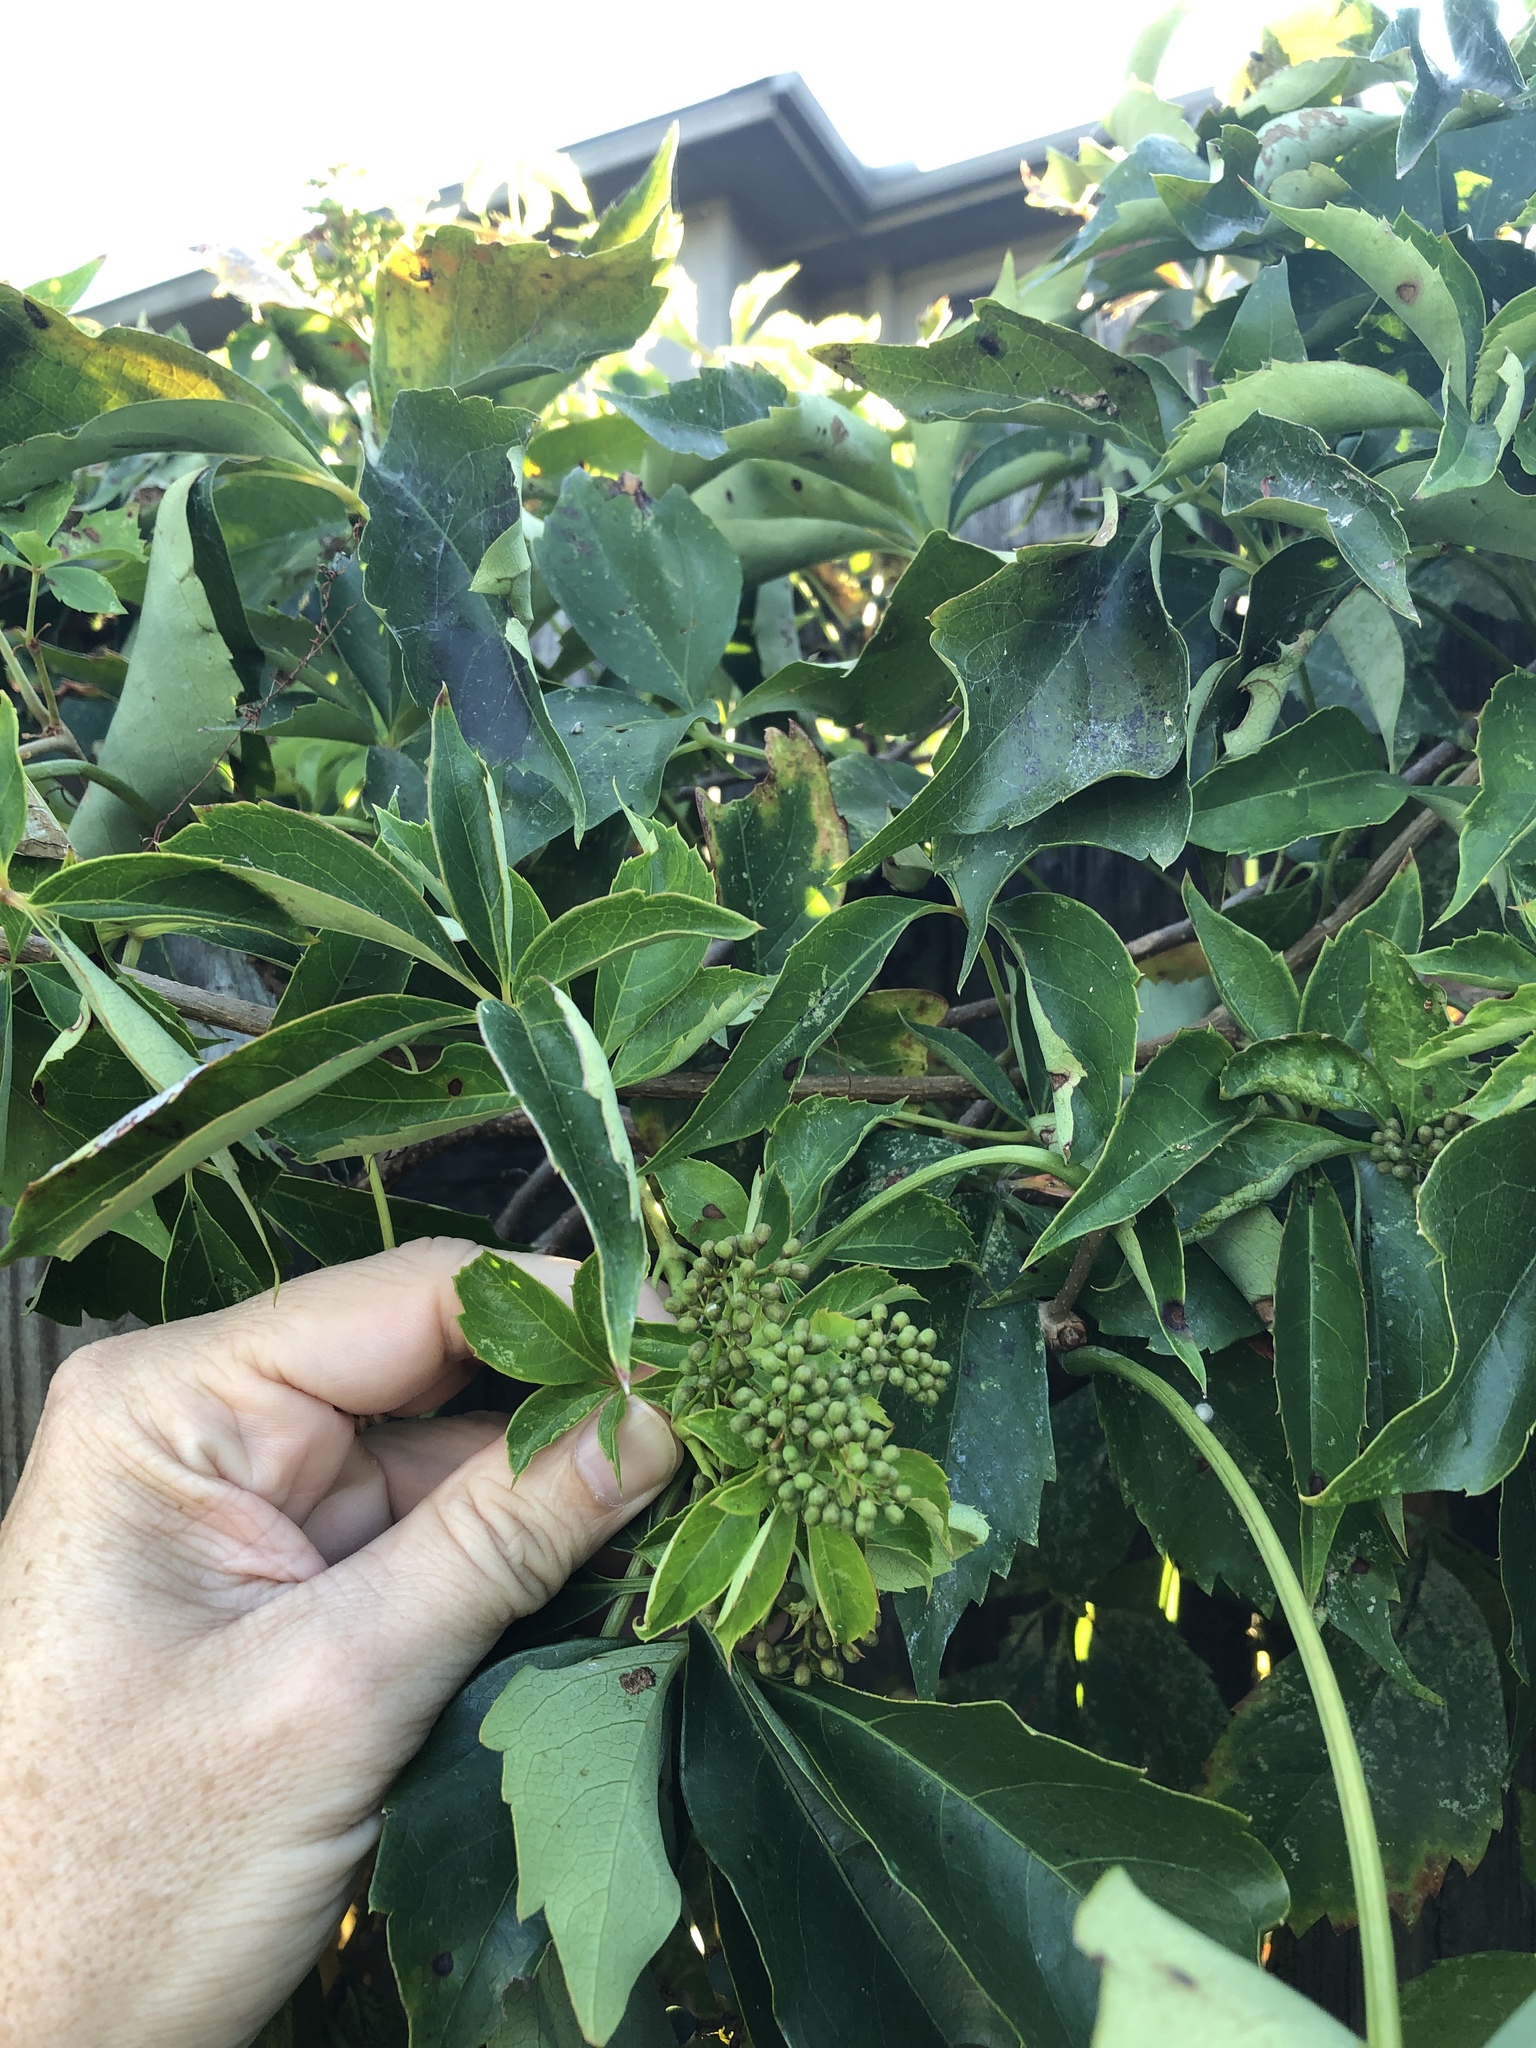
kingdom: Plantae
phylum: Tracheophyta
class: Magnoliopsida
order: Vitales
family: Vitaceae
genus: Parthenocissus
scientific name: Parthenocissus quinquefolia
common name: Virginia-creeper
